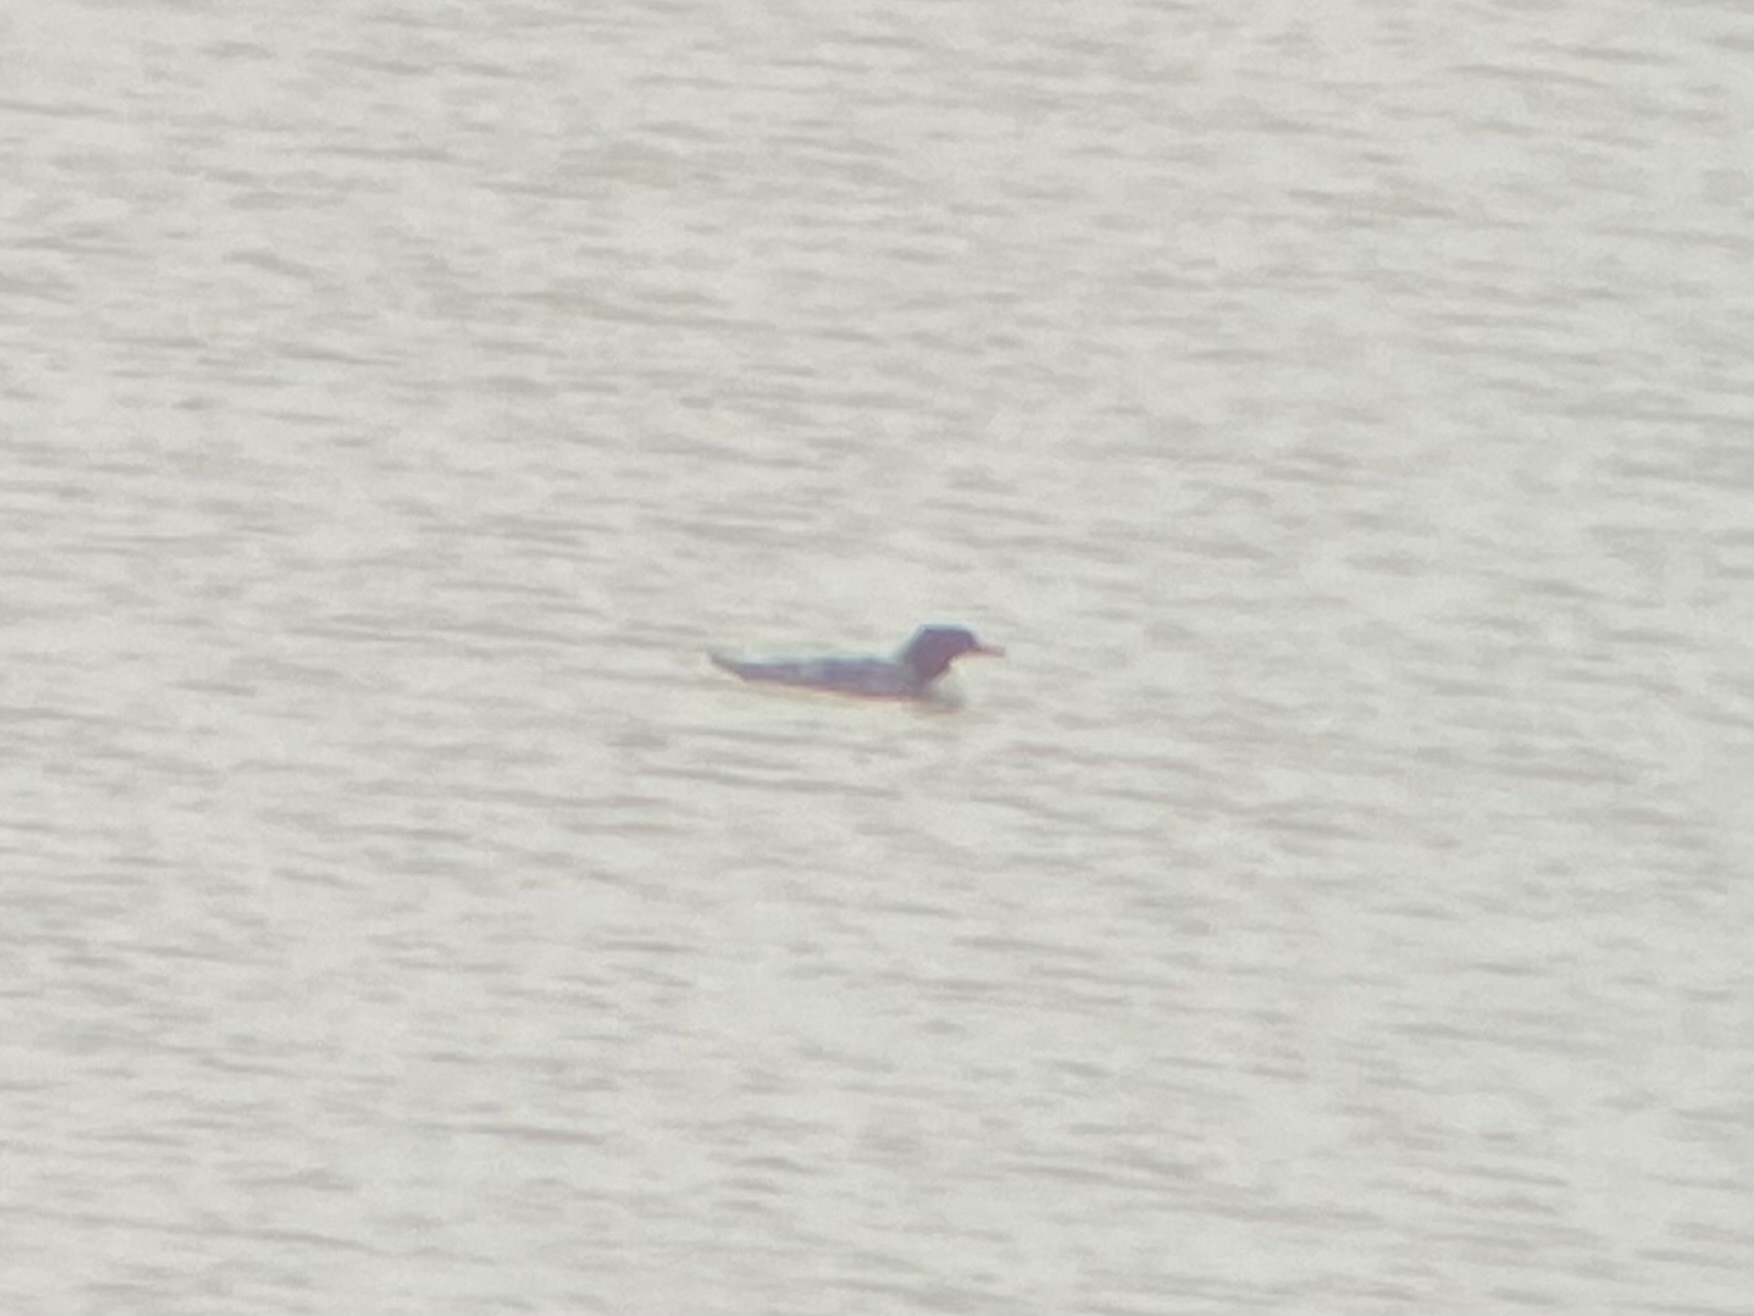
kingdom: Animalia
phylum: Chordata
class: Aves
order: Anseriformes
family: Anatidae
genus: Mergus
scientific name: Mergus merganser
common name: Common merganser
